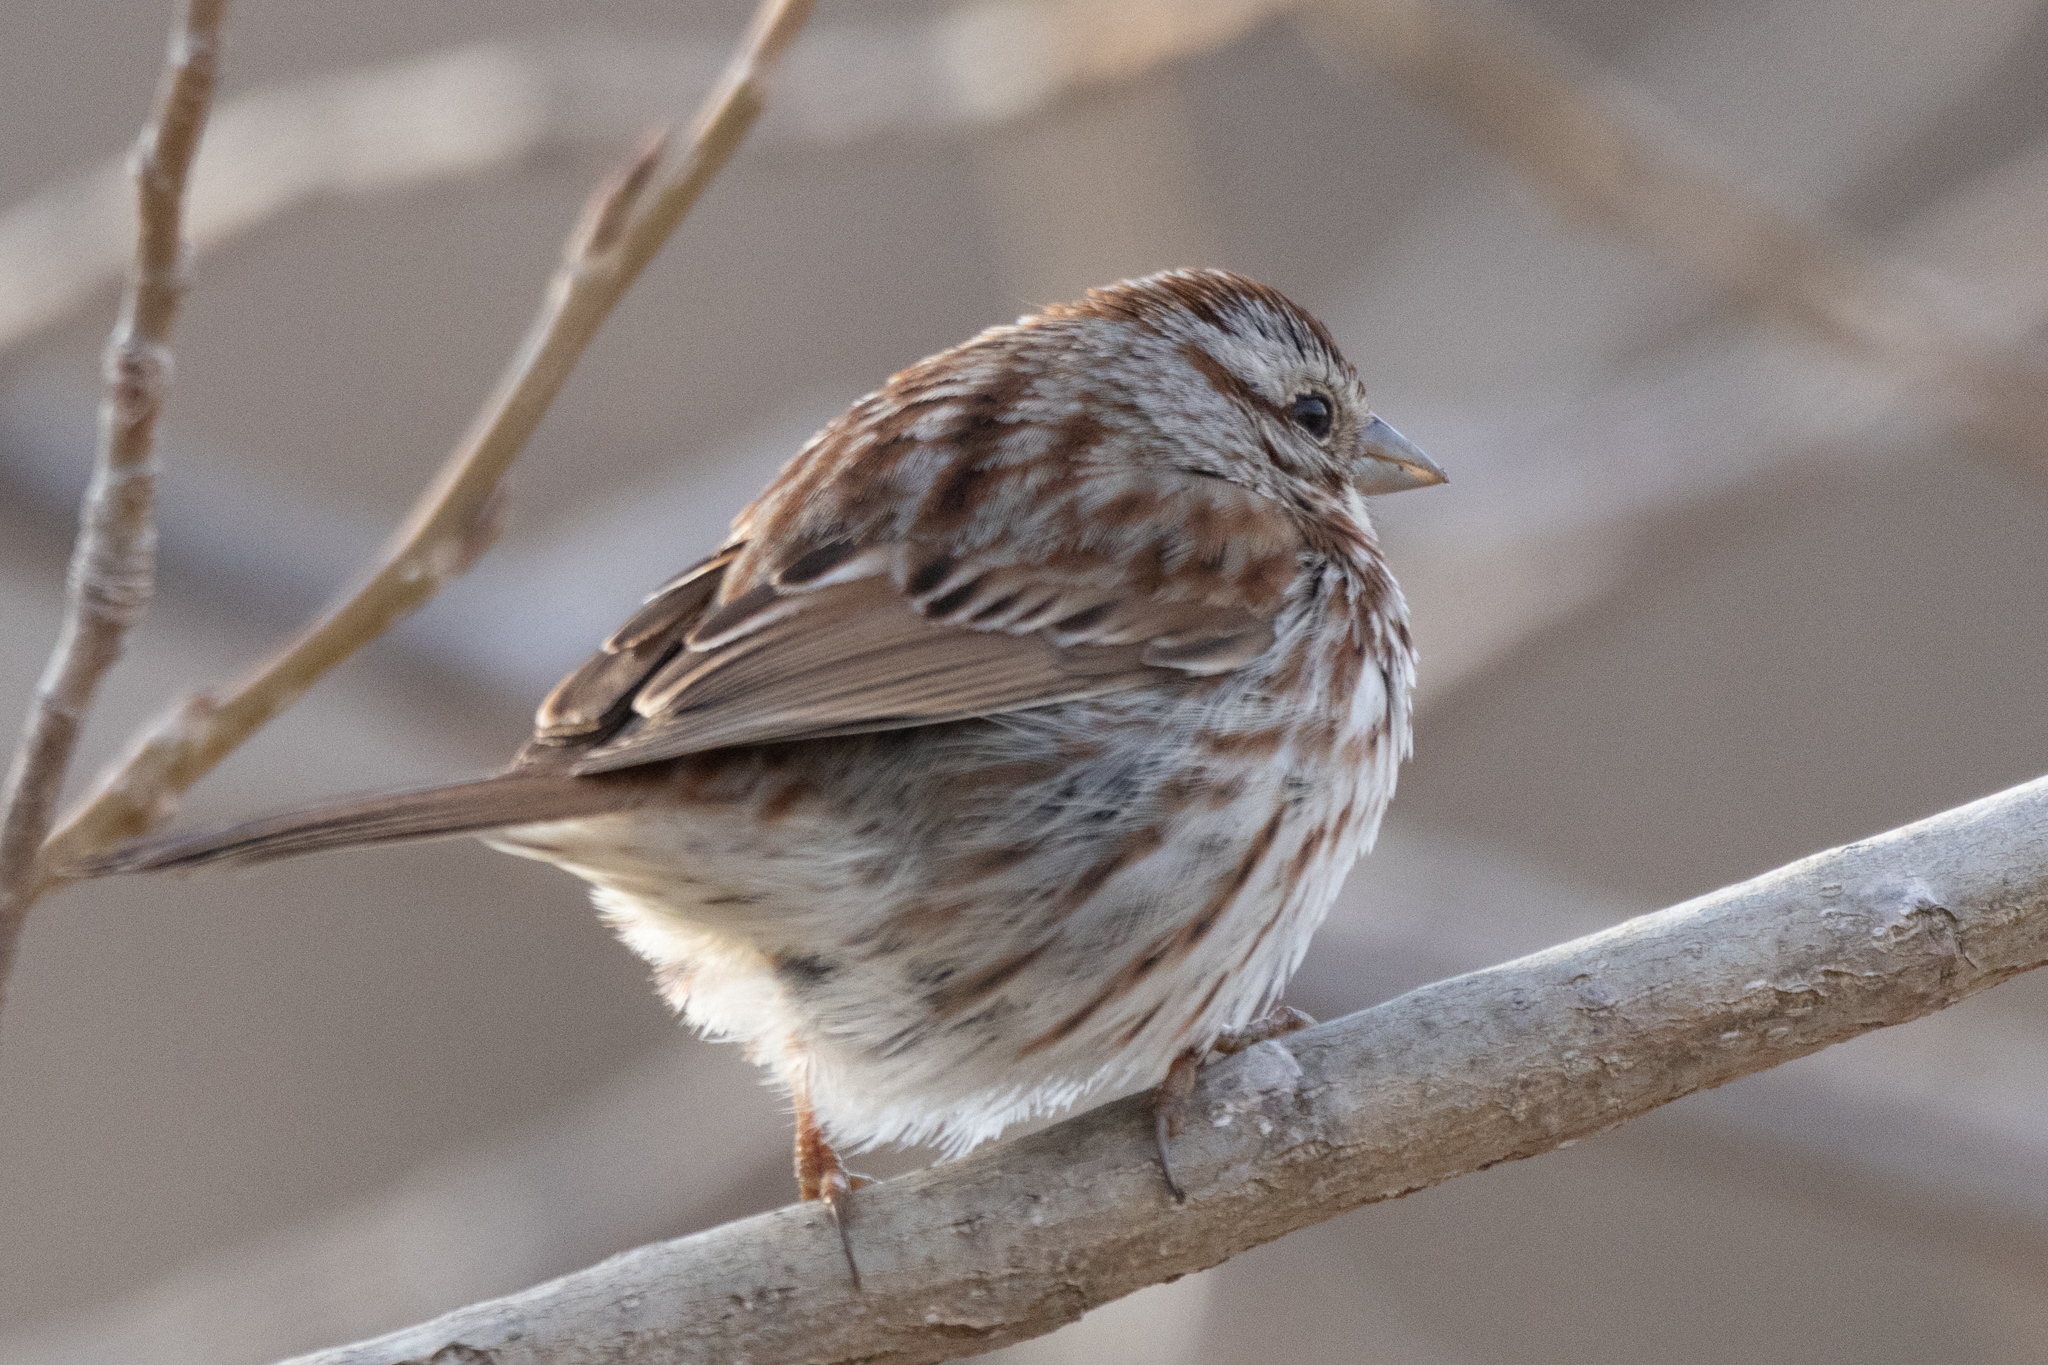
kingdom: Animalia
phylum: Chordata
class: Aves
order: Passeriformes
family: Passerellidae
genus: Melospiza
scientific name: Melospiza melodia
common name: Song sparrow
